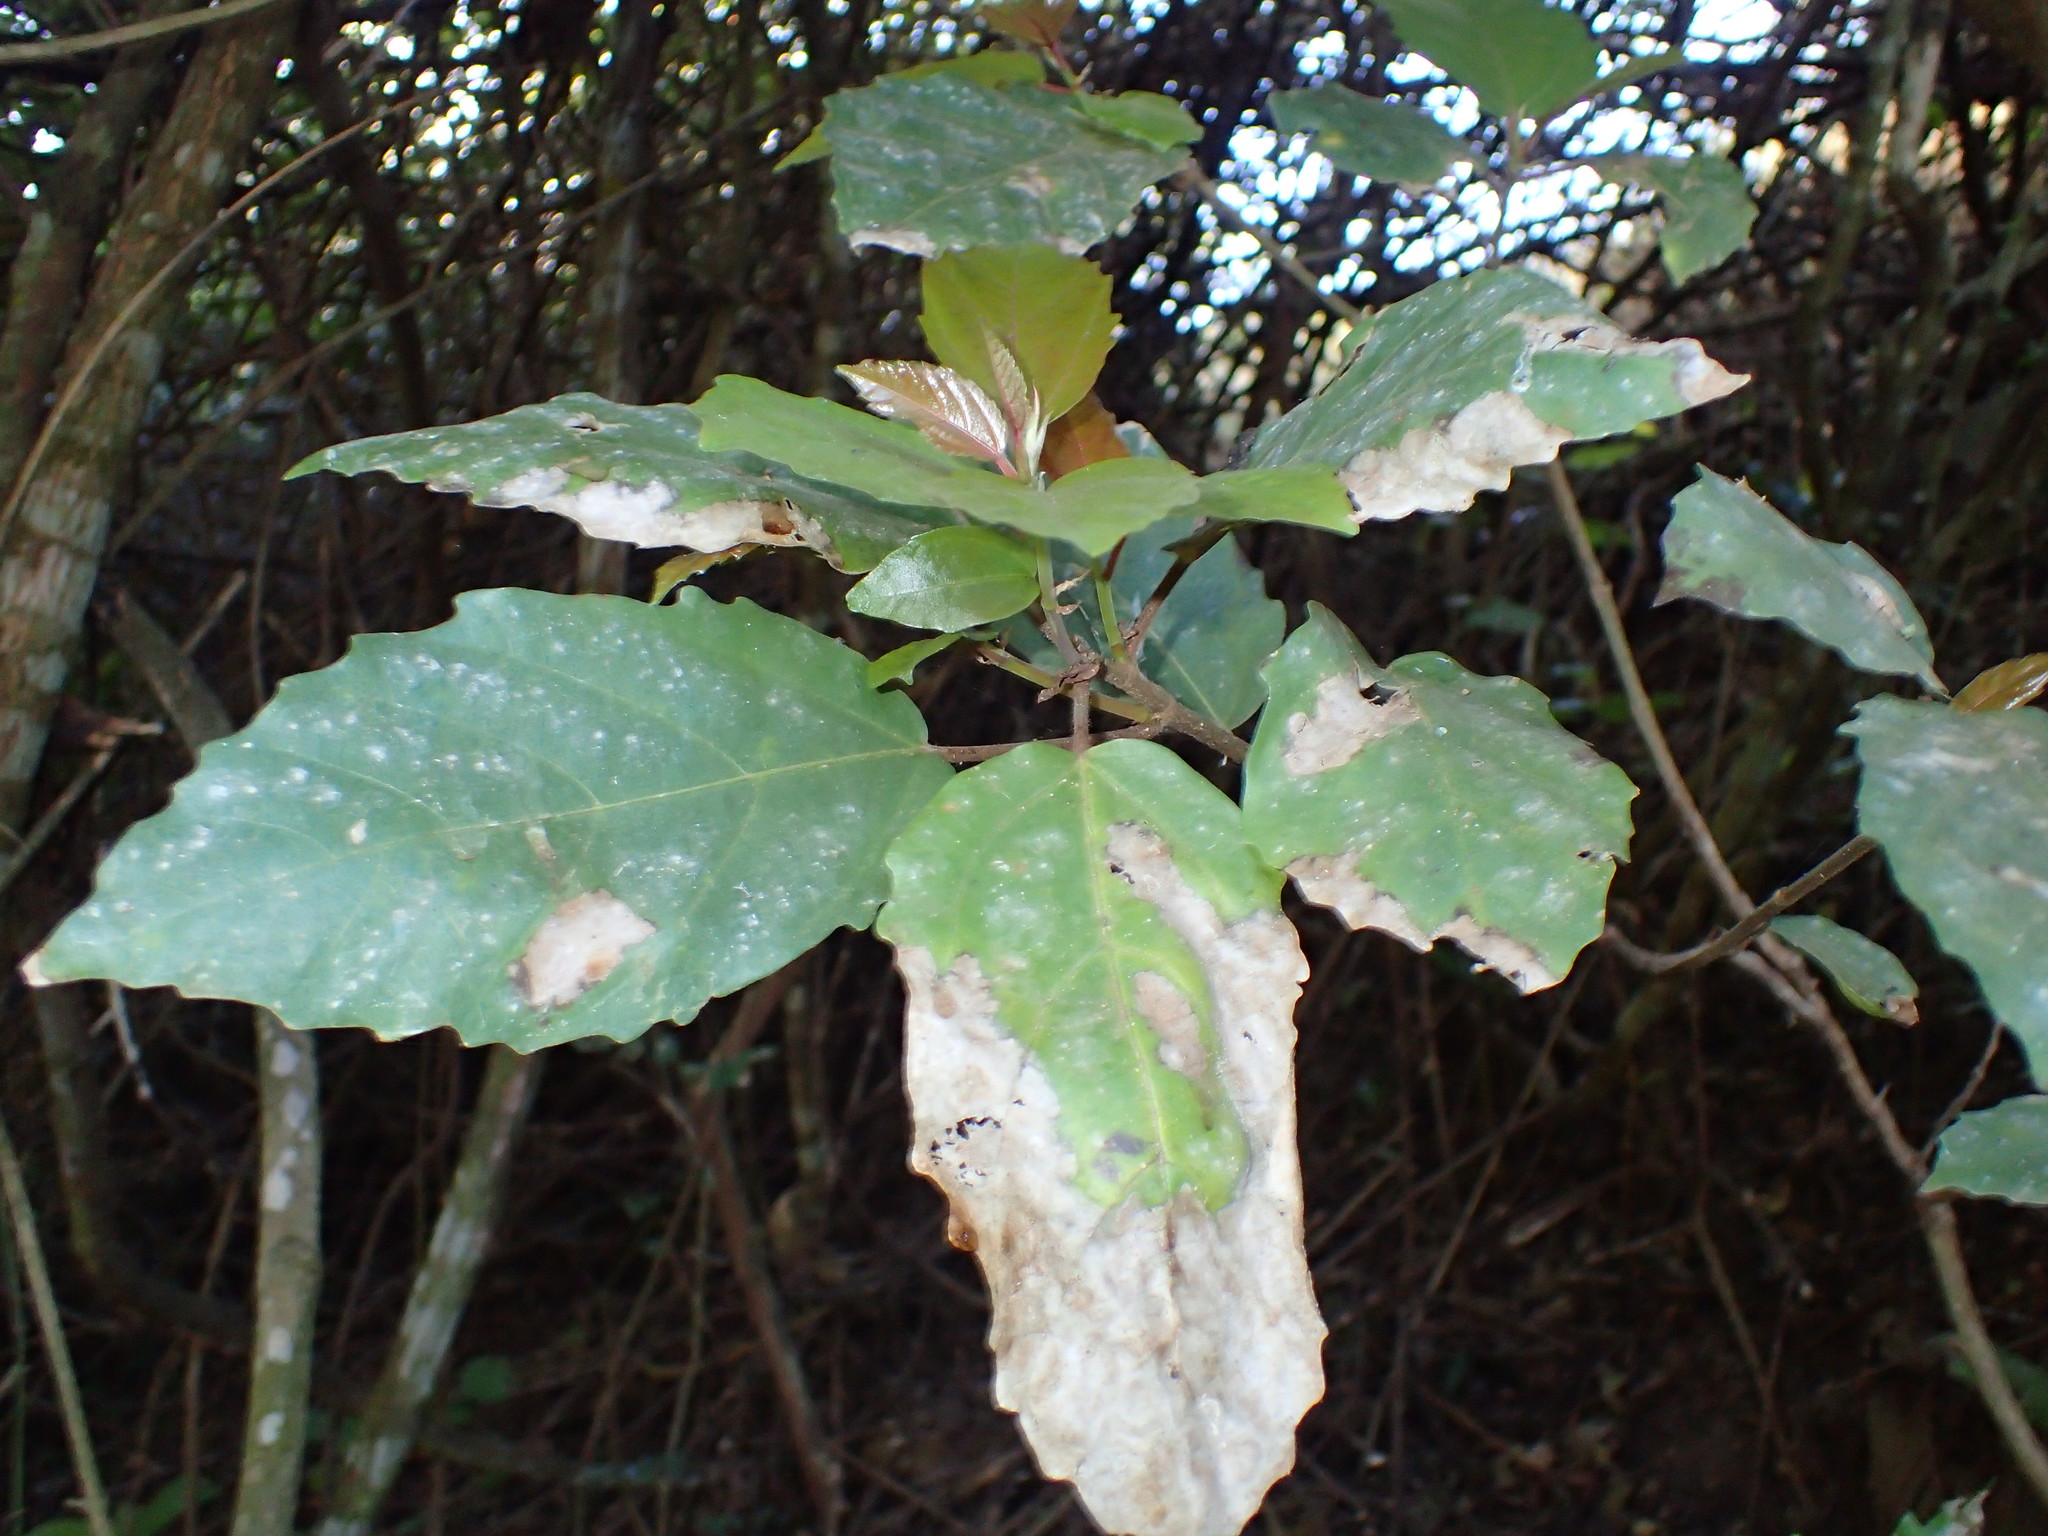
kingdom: Plantae
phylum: Tracheophyta
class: Magnoliopsida
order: Rosales
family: Moraceae
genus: Ficus
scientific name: Ficus sur
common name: Cape fig
